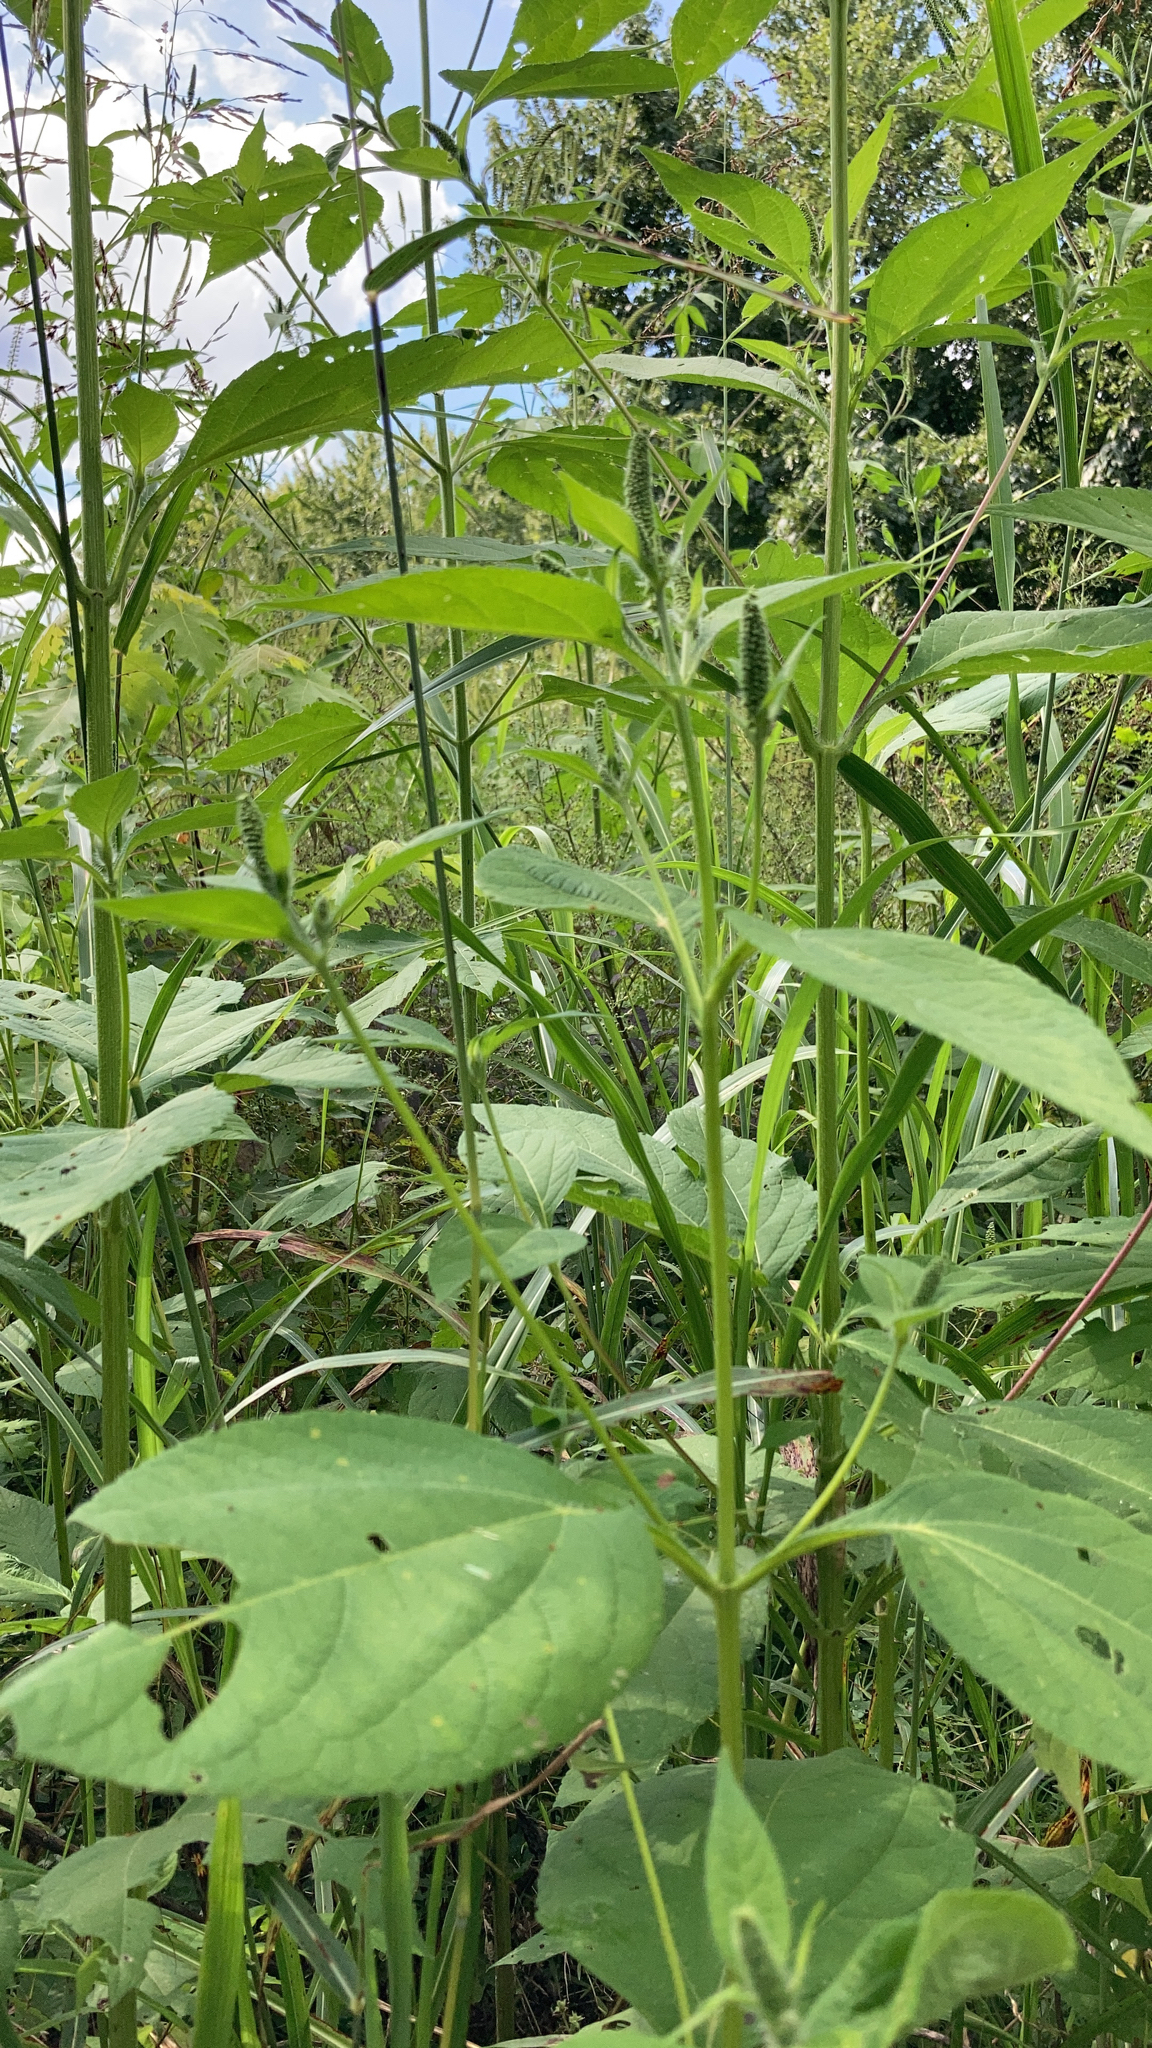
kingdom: Plantae
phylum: Tracheophyta
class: Magnoliopsida
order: Asterales
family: Asteraceae
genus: Ambrosia
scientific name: Ambrosia trifida
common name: Giant ragweed
